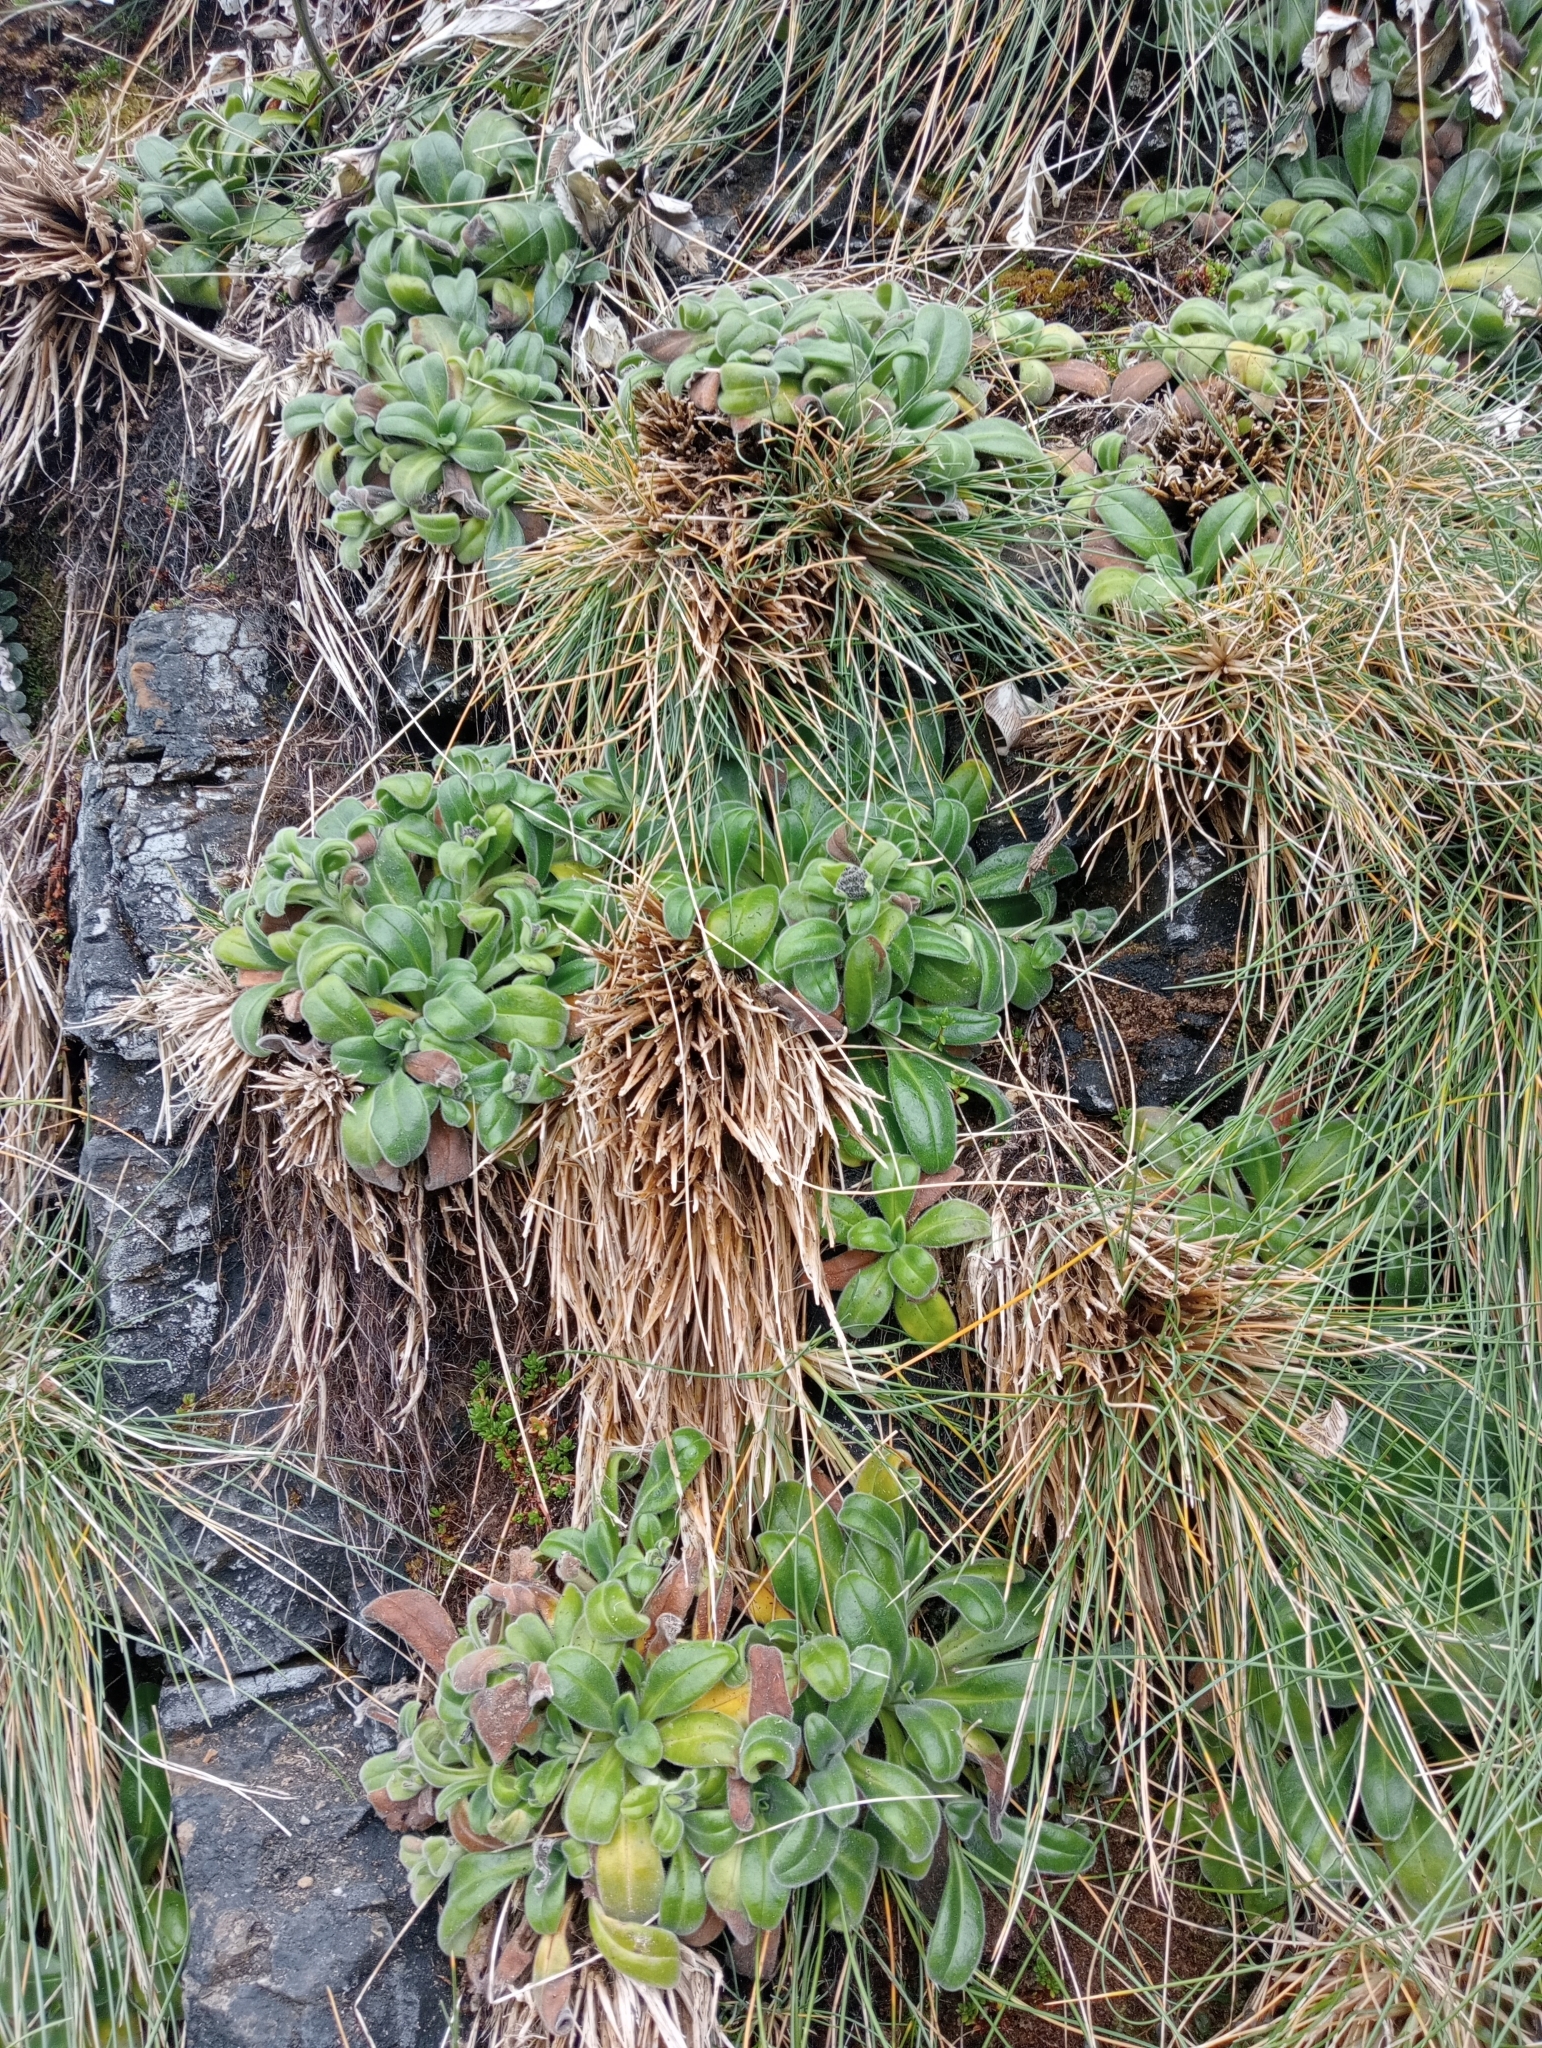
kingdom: Plantae
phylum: Tracheophyta
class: Magnoliopsida
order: Boraginales
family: Boraginaceae
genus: Myosotis
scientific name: Myosotis rakiura
